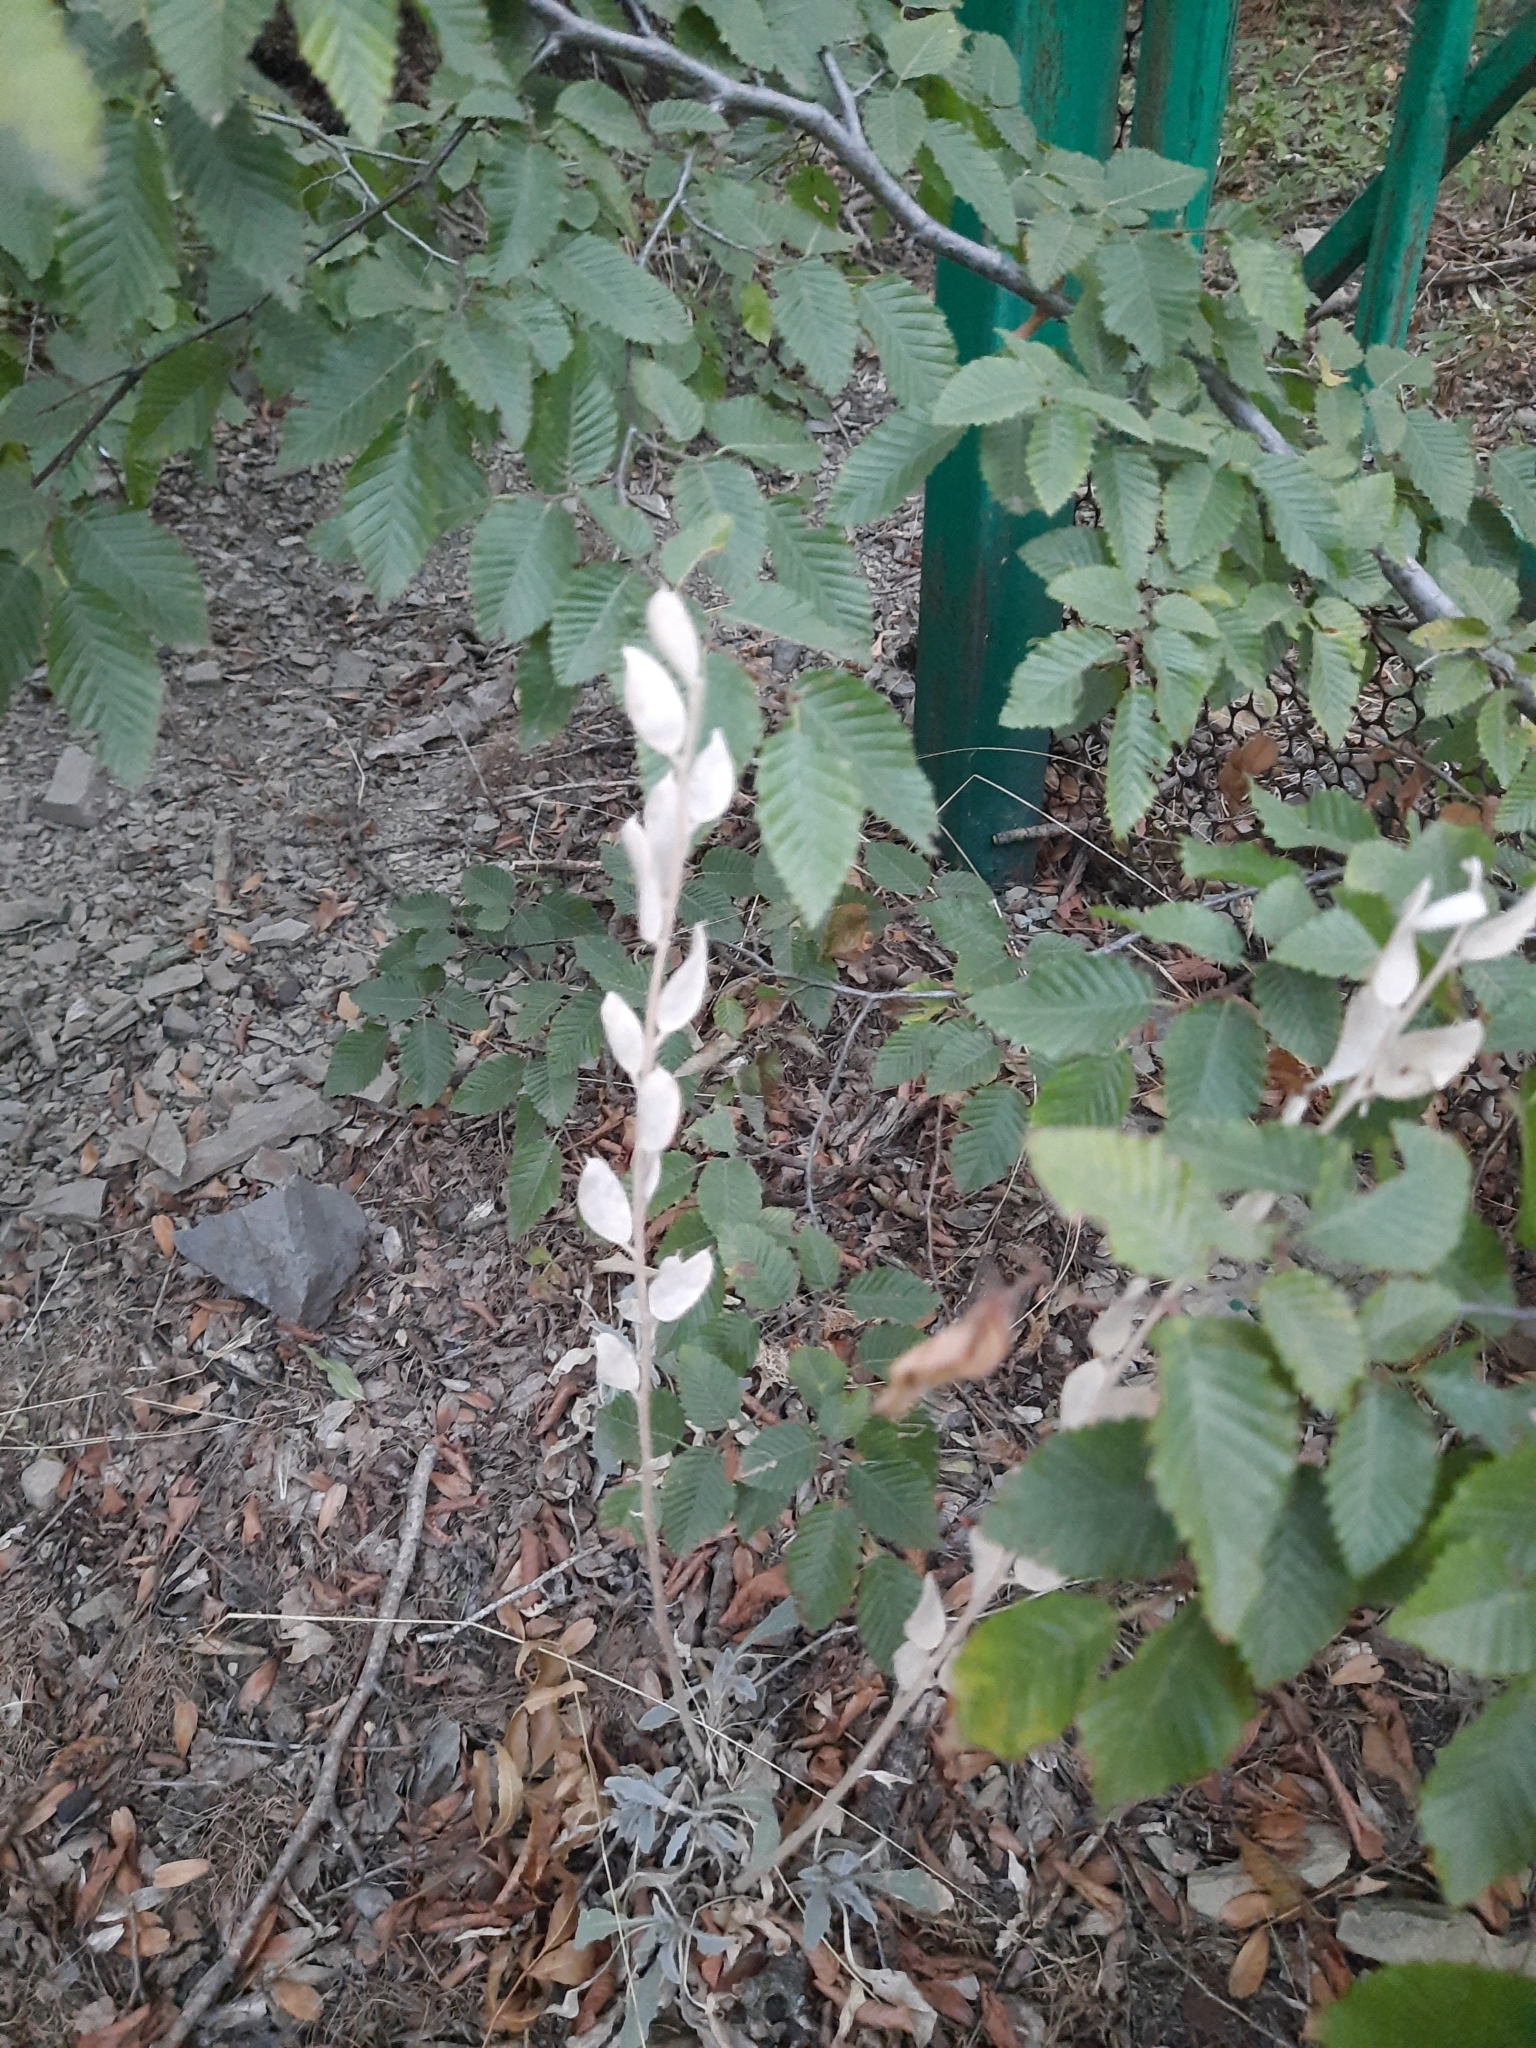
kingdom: Plantae
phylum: Tracheophyta
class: Magnoliopsida
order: Brassicales
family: Brassicaceae
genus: Fibigia
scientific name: Fibigia clypeata
